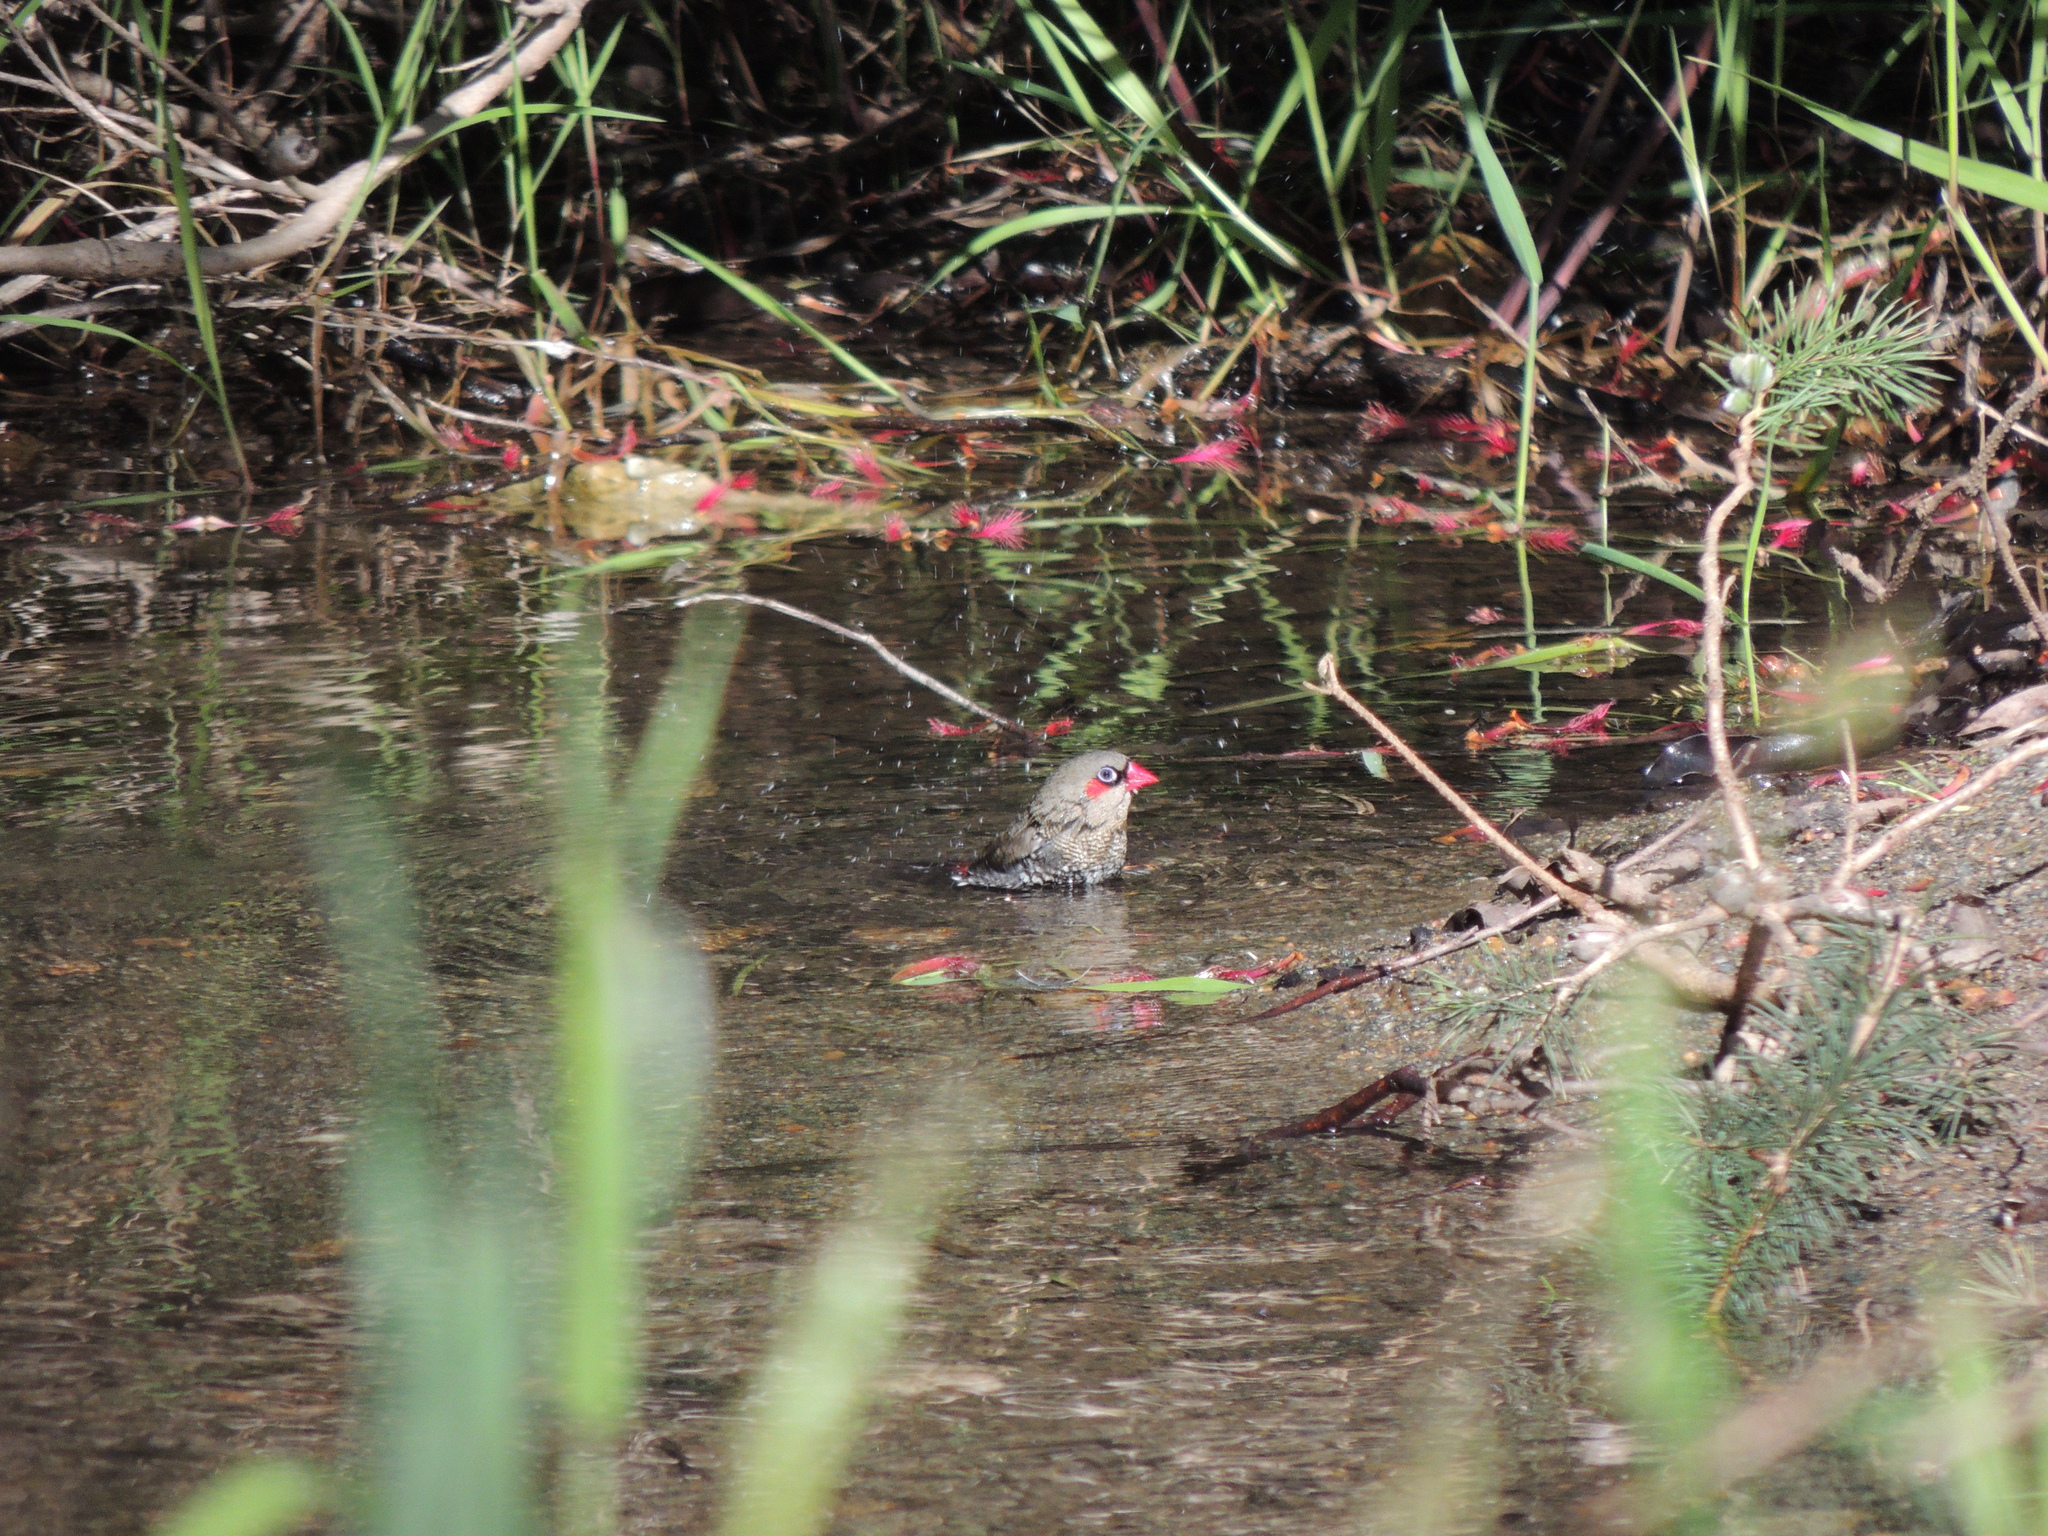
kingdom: Animalia
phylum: Chordata
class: Aves
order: Passeriformes
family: Estrildidae
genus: Stagonopleura
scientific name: Stagonopleura oculata
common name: Red-eared firetail
